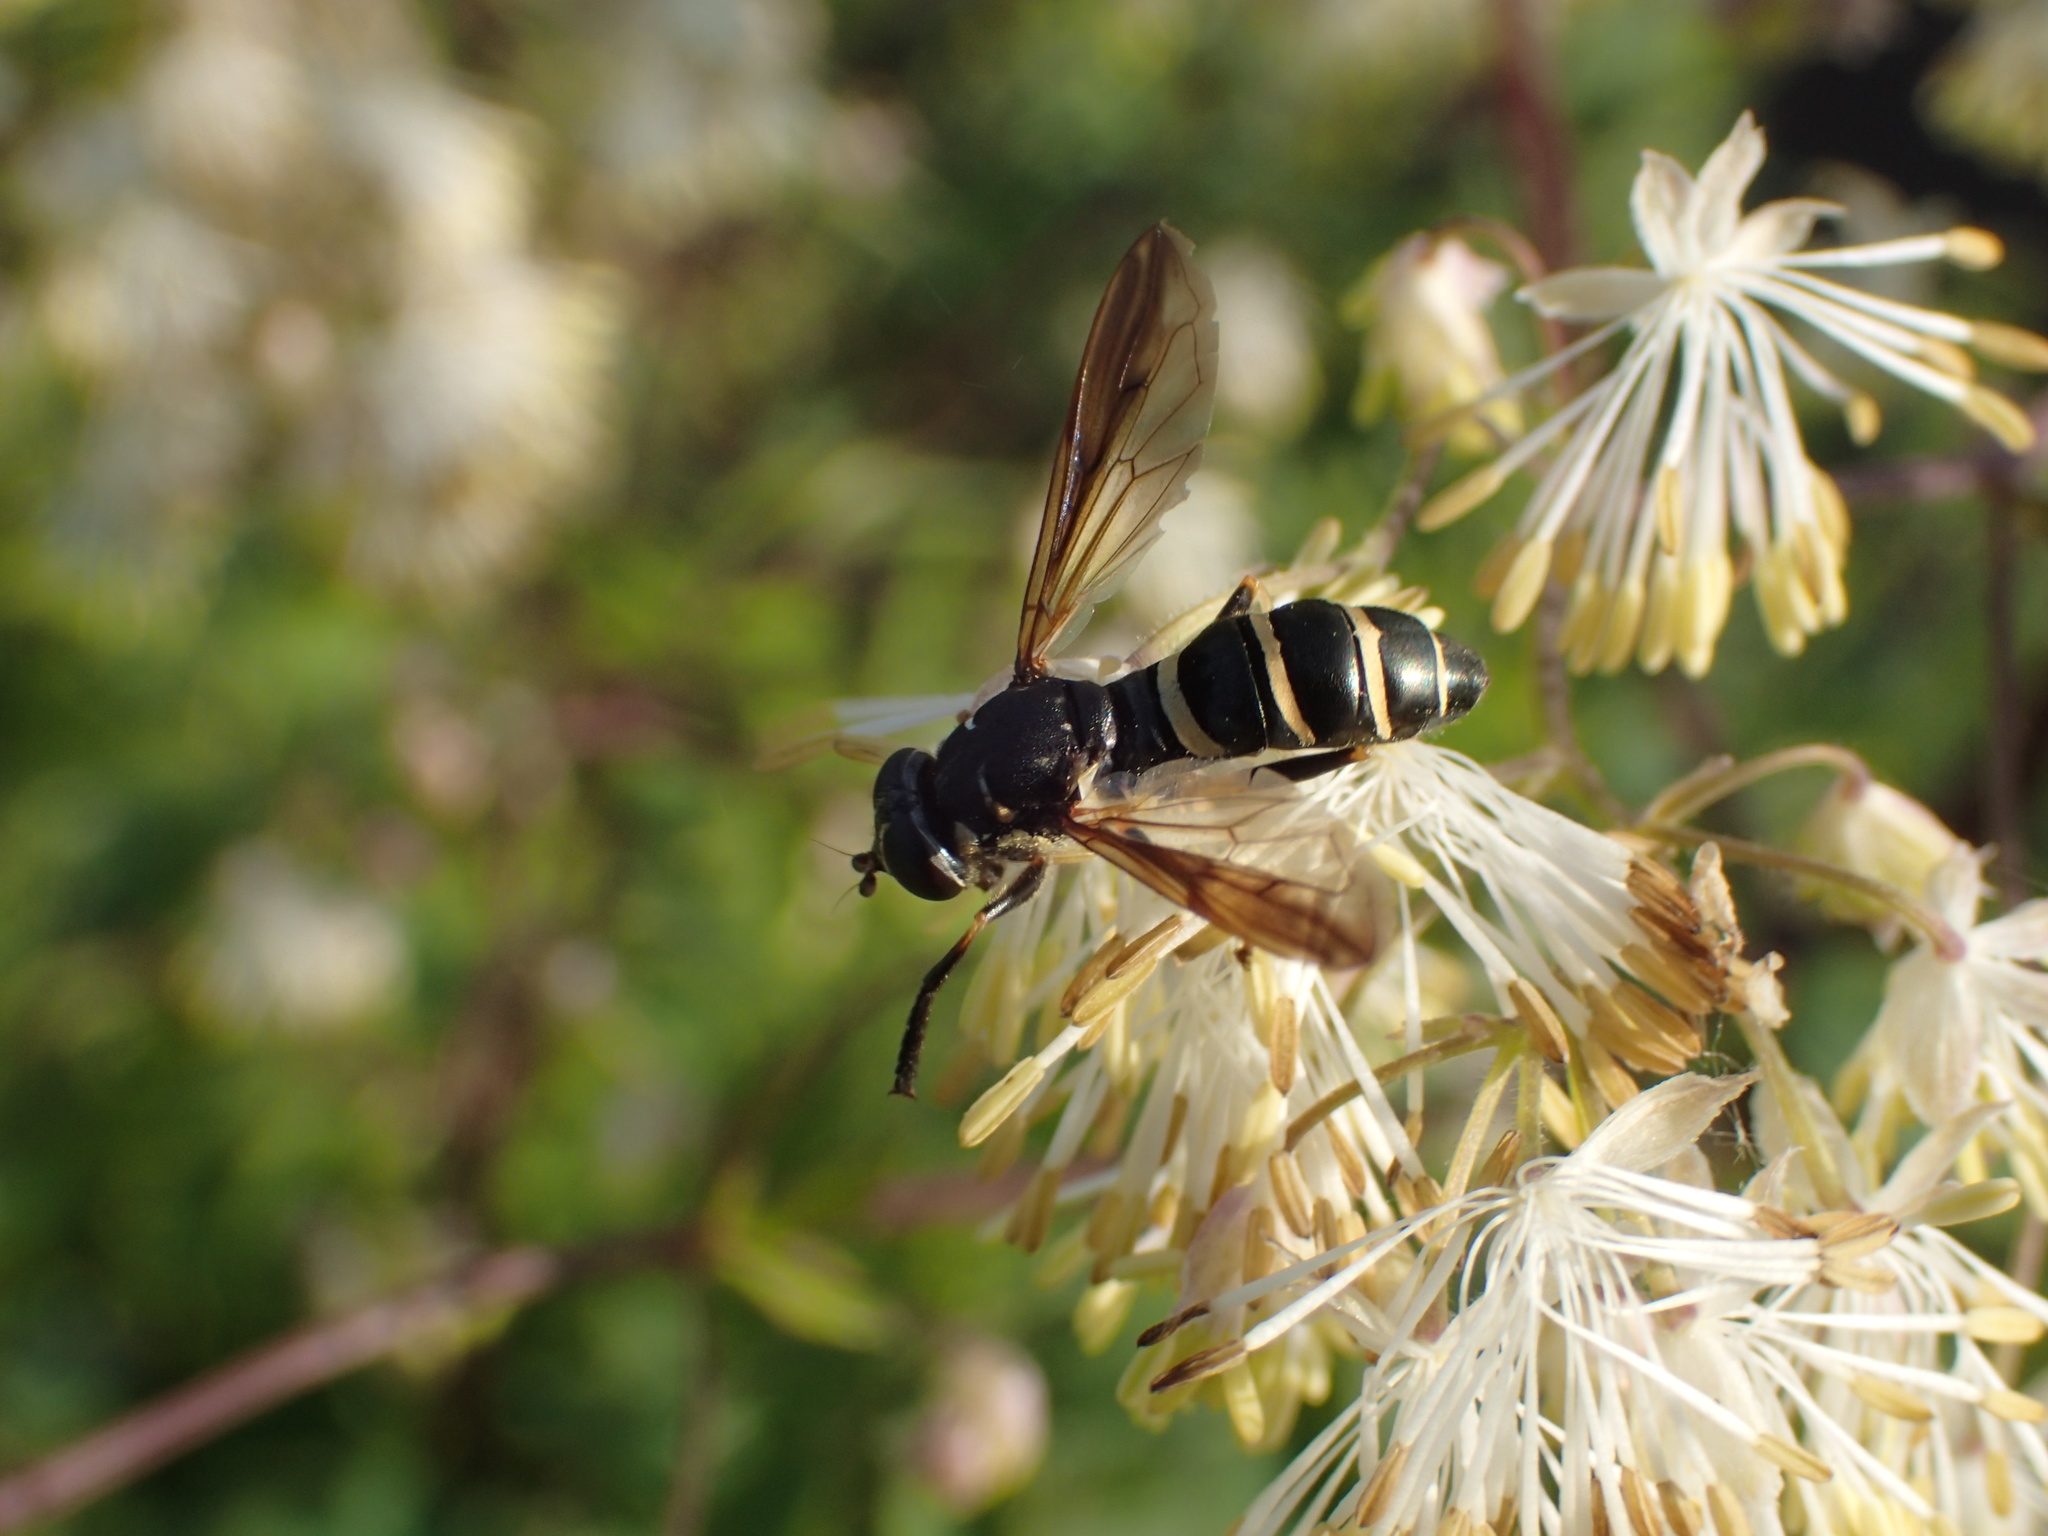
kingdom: Animalia
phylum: Arthropoda
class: Insecta
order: Diptera
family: Syrphidae
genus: Temnostoma
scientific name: Temnostoma barberi
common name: Bare-bellied falsehorn
